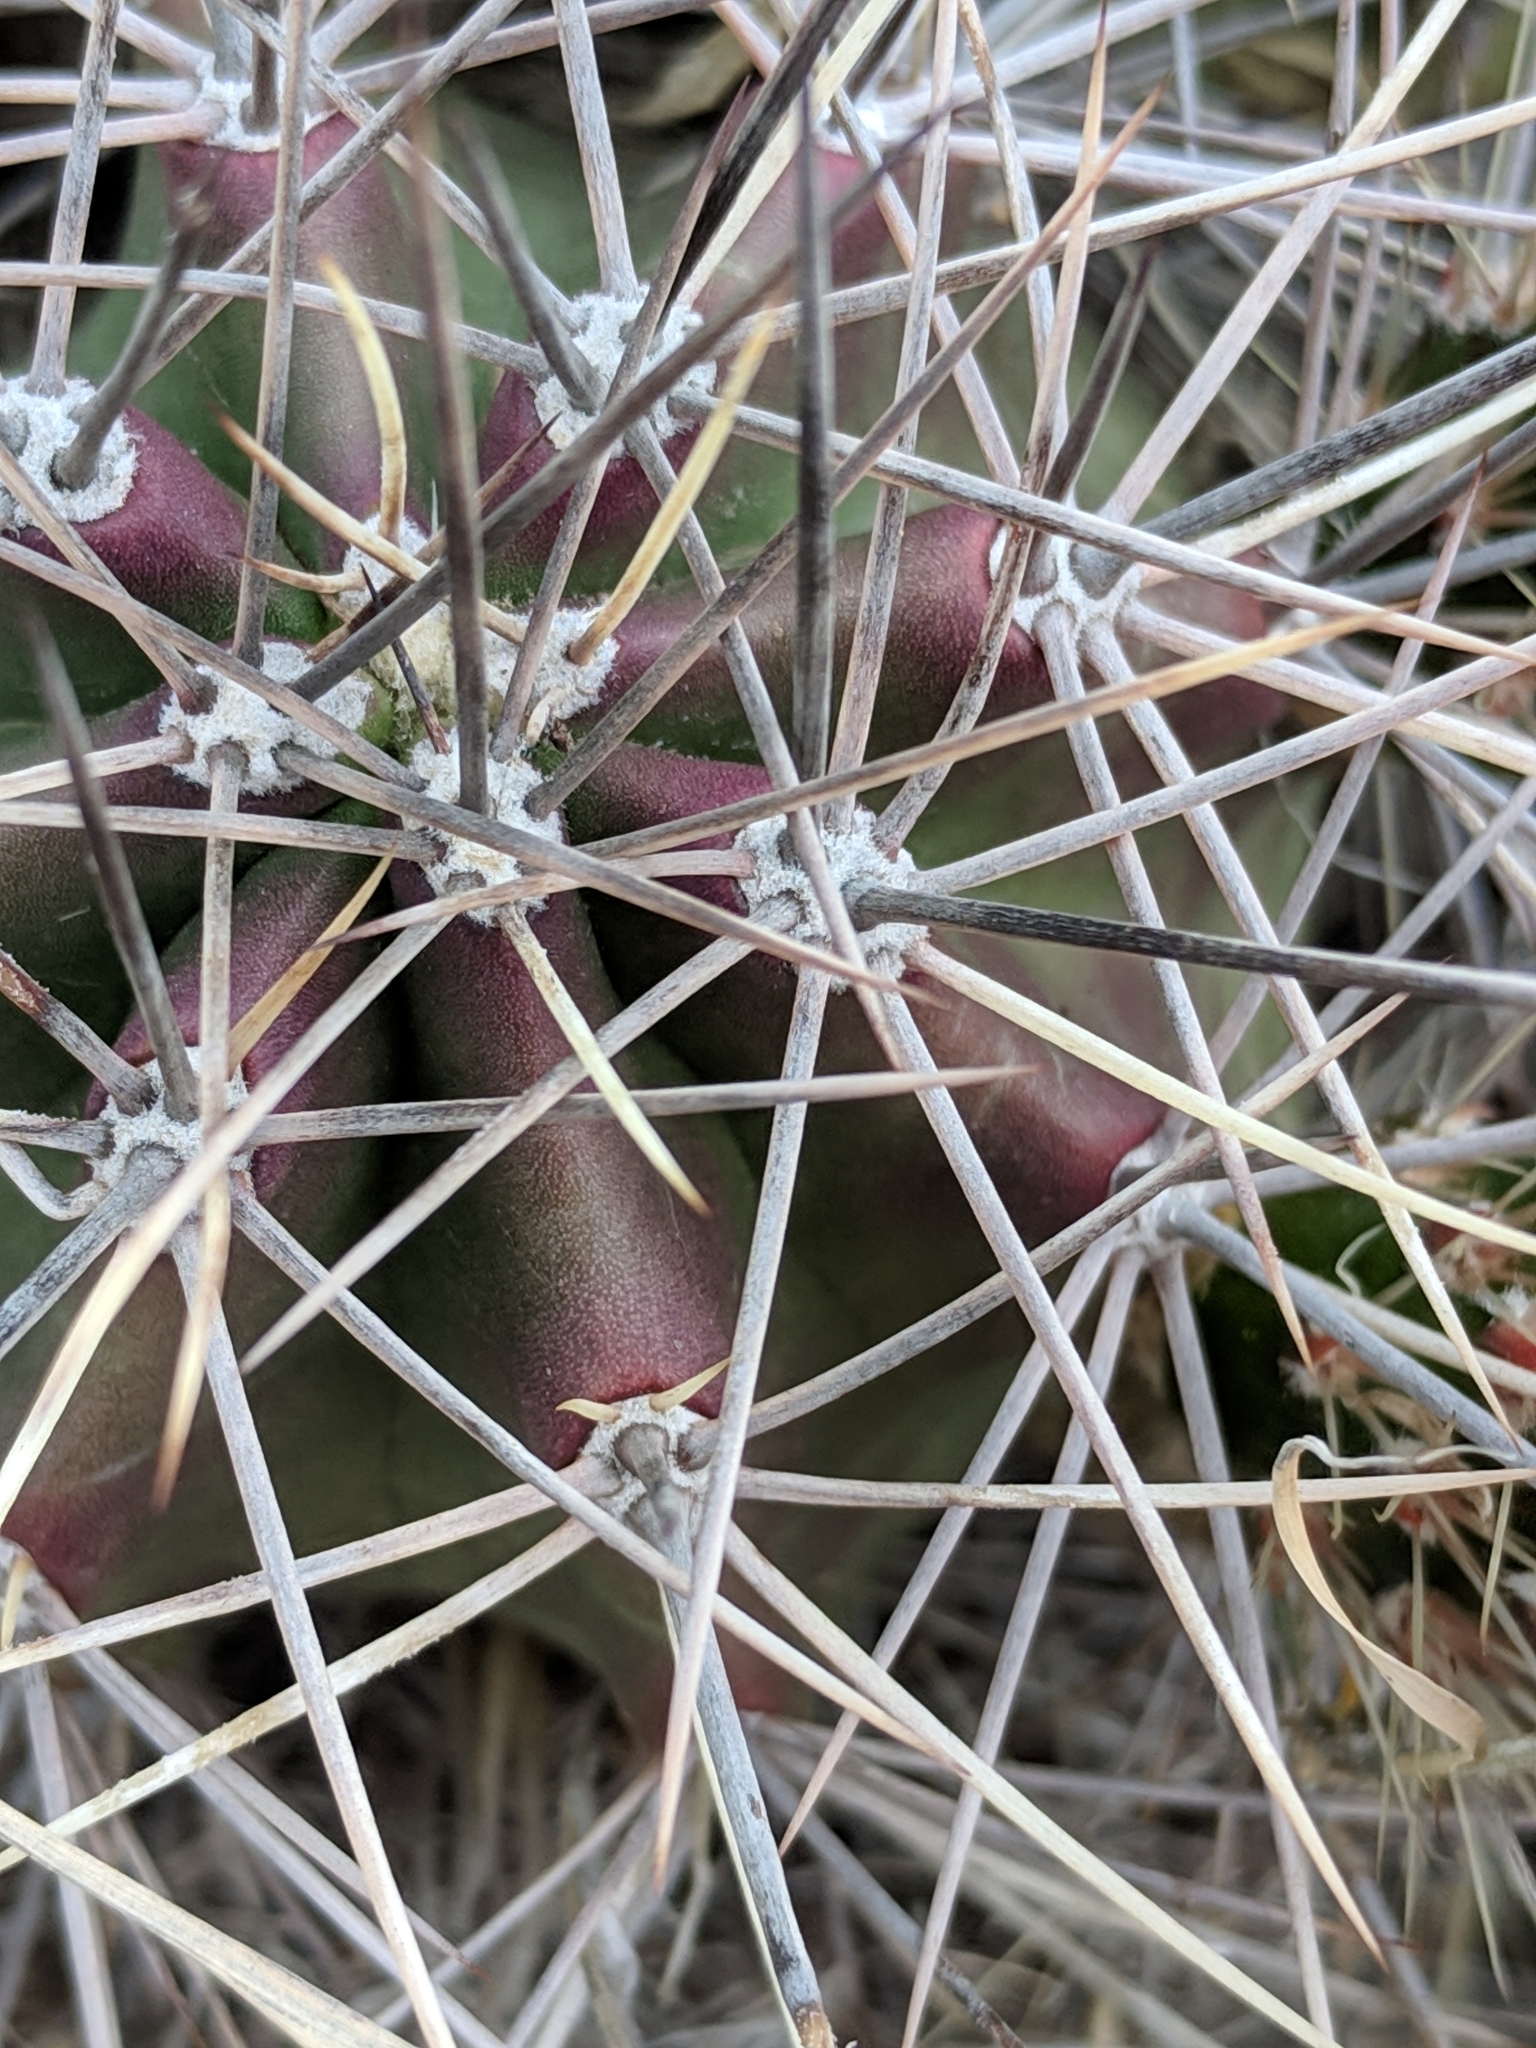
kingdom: Plantae
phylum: Tracheophyta
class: Magnoliopsida
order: Caryophyllales
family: Cactaceae
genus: Echinocereus
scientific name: Echinocereus coccineus
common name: Scarlet hedgehog cactus
